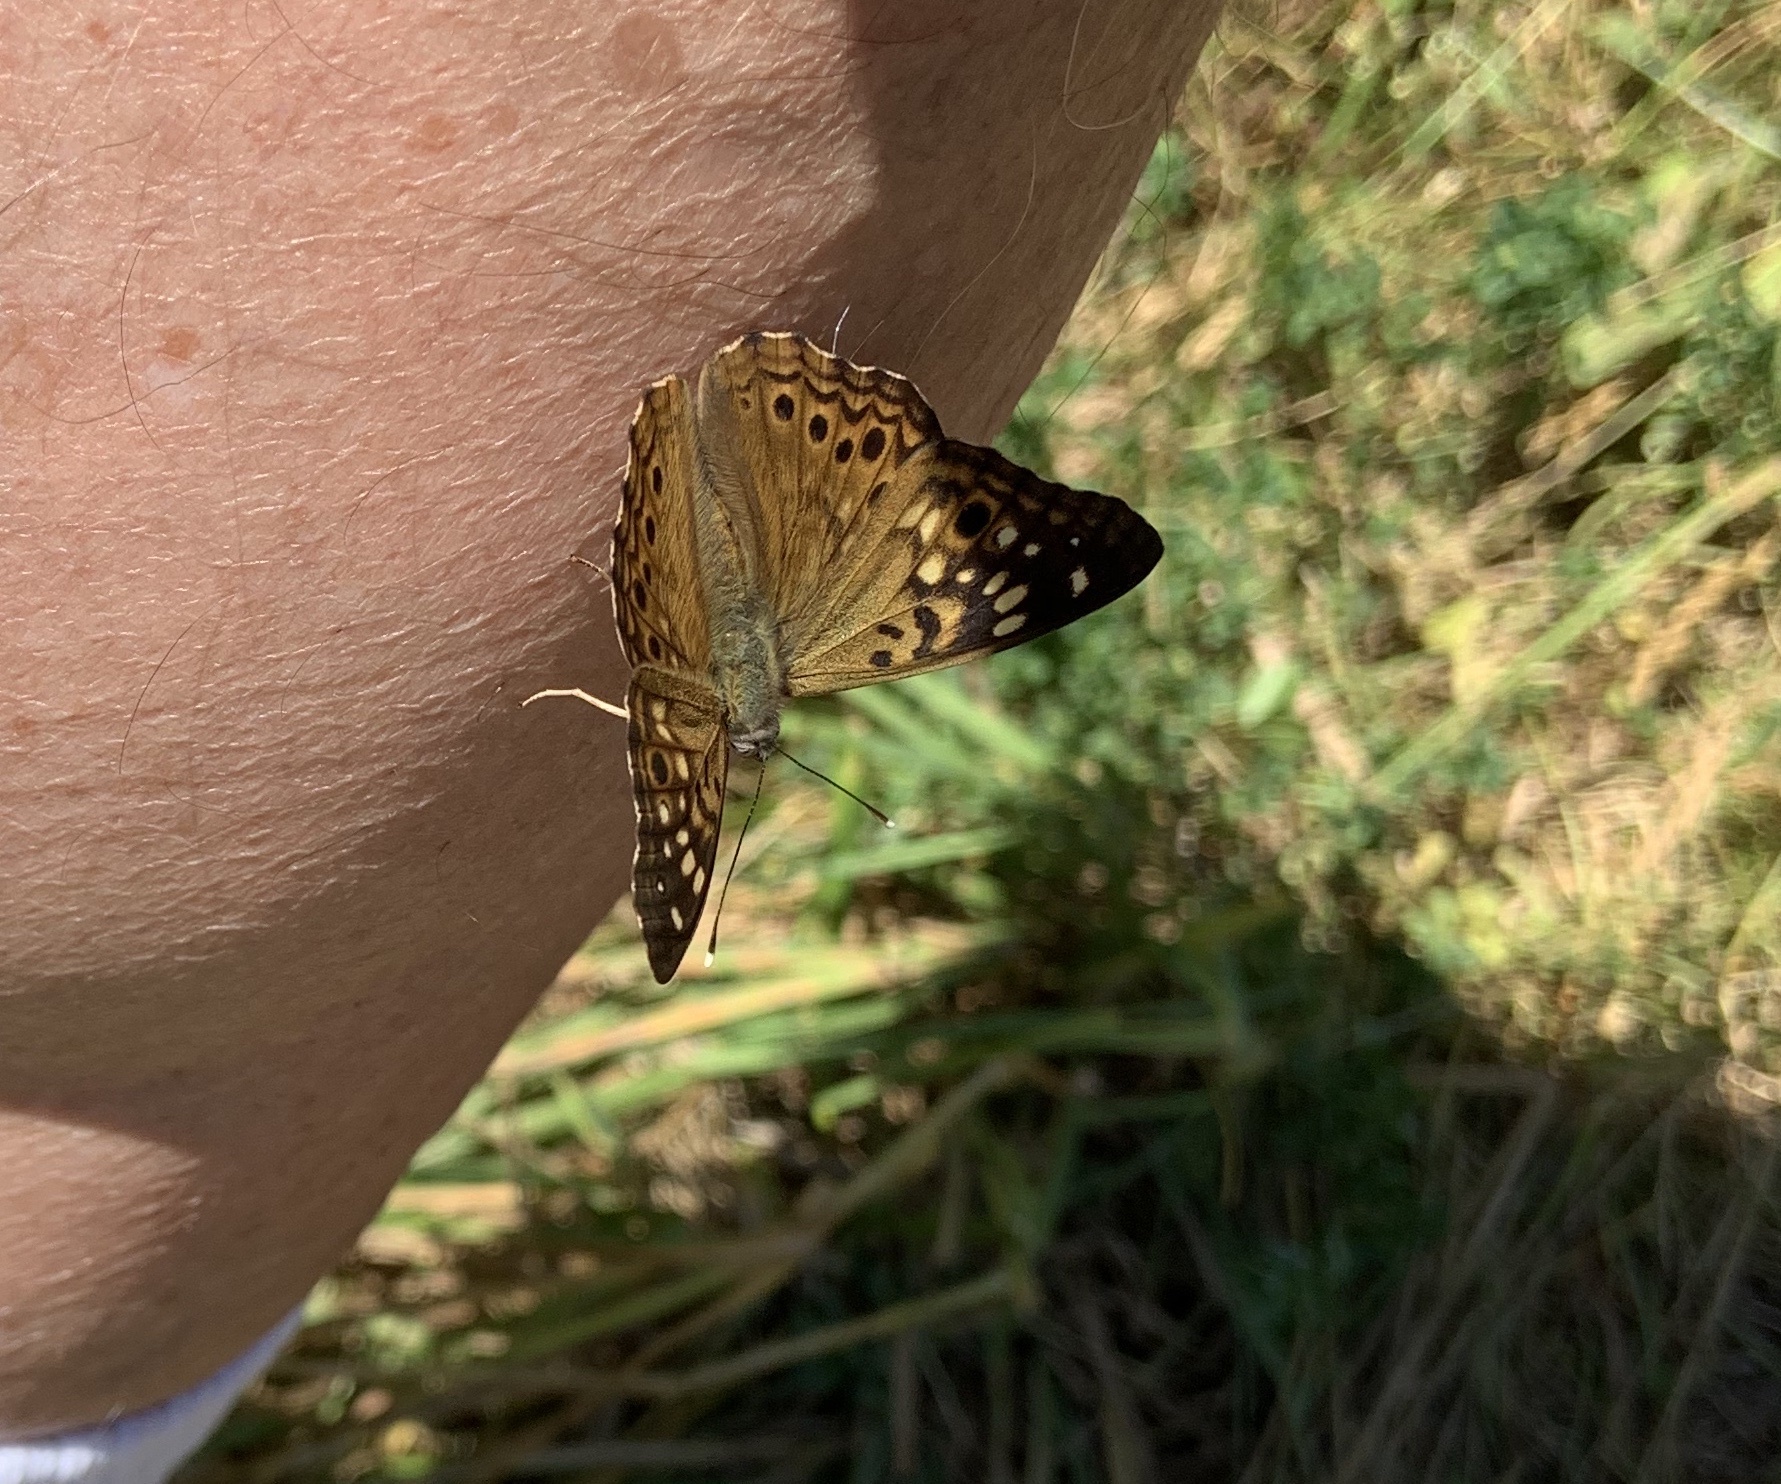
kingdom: Animalia
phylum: Arthropoda
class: Insecta
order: Lepidoptera
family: Nymphalidae
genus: Asterocampa
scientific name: Asterocampa celtis
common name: Hackberry emperor
